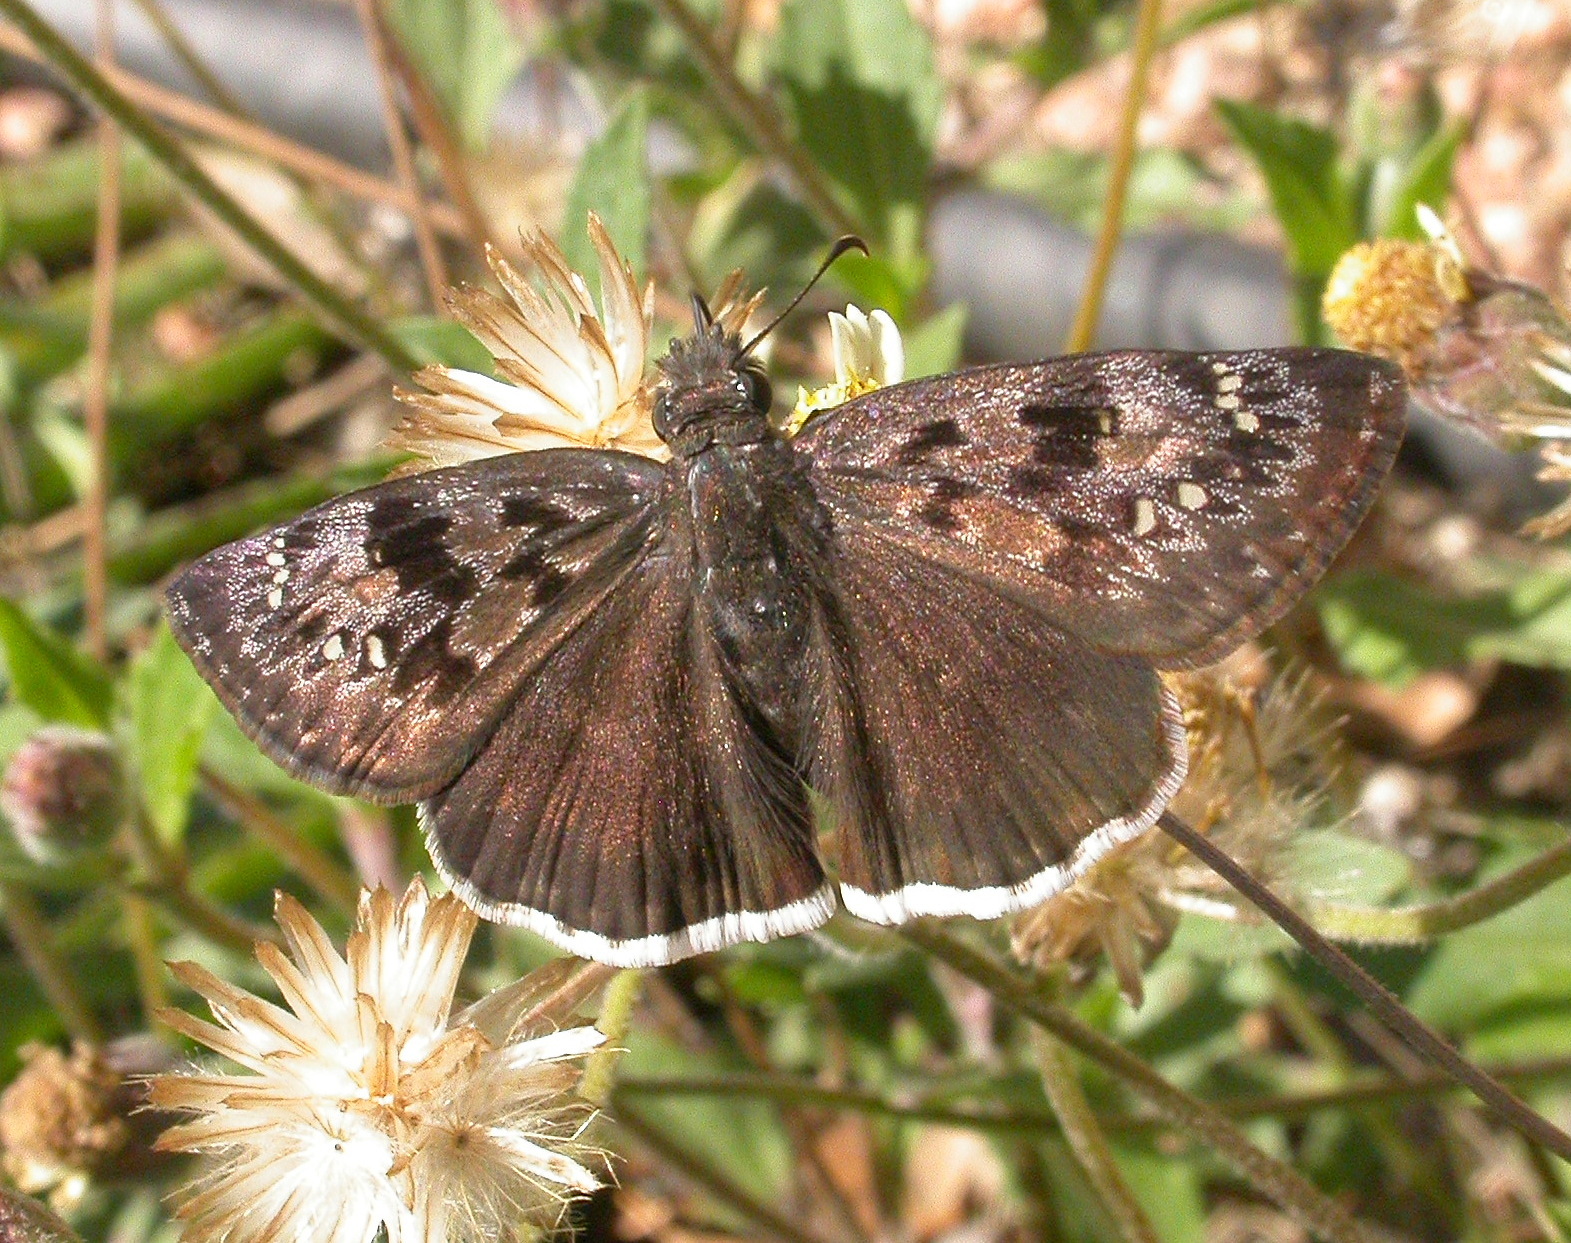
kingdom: Animalia
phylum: Arthropoda
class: Insecta
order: Lepidoptera
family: Hesperiidae
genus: Erynnis
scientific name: Erynnis tristis
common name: Mournful duskywing
